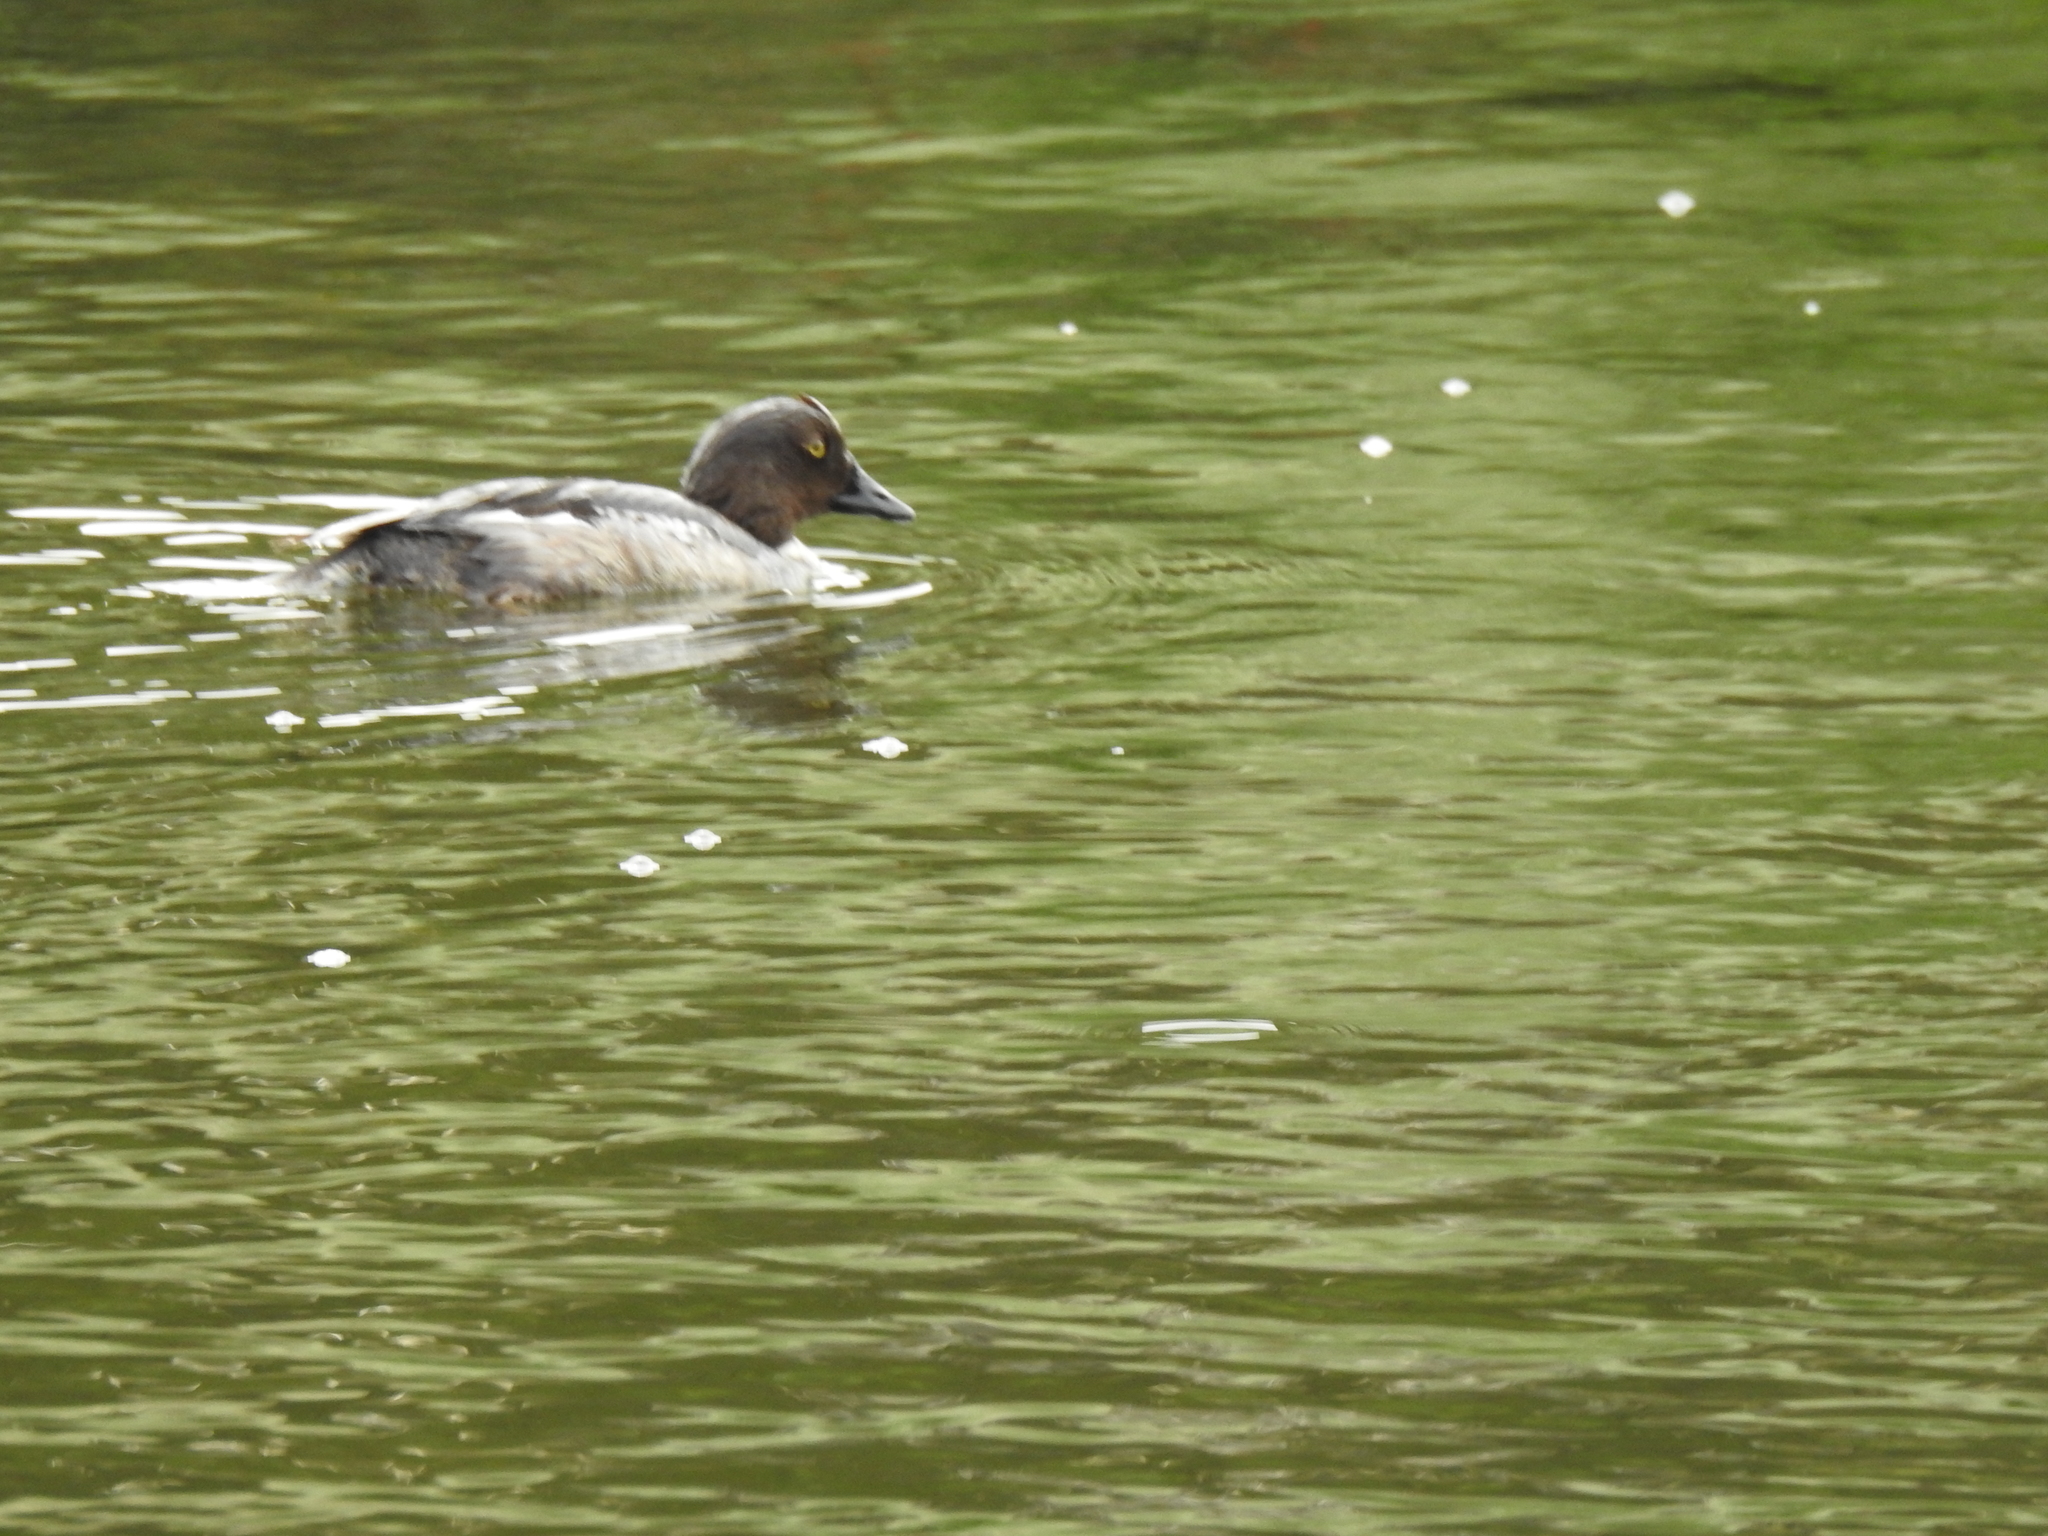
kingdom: Animalia
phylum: Chordata
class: Aves
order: Anseriformes
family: Anatidae
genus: Bucephala
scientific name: Bucephala clangula
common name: Common goldeneye
